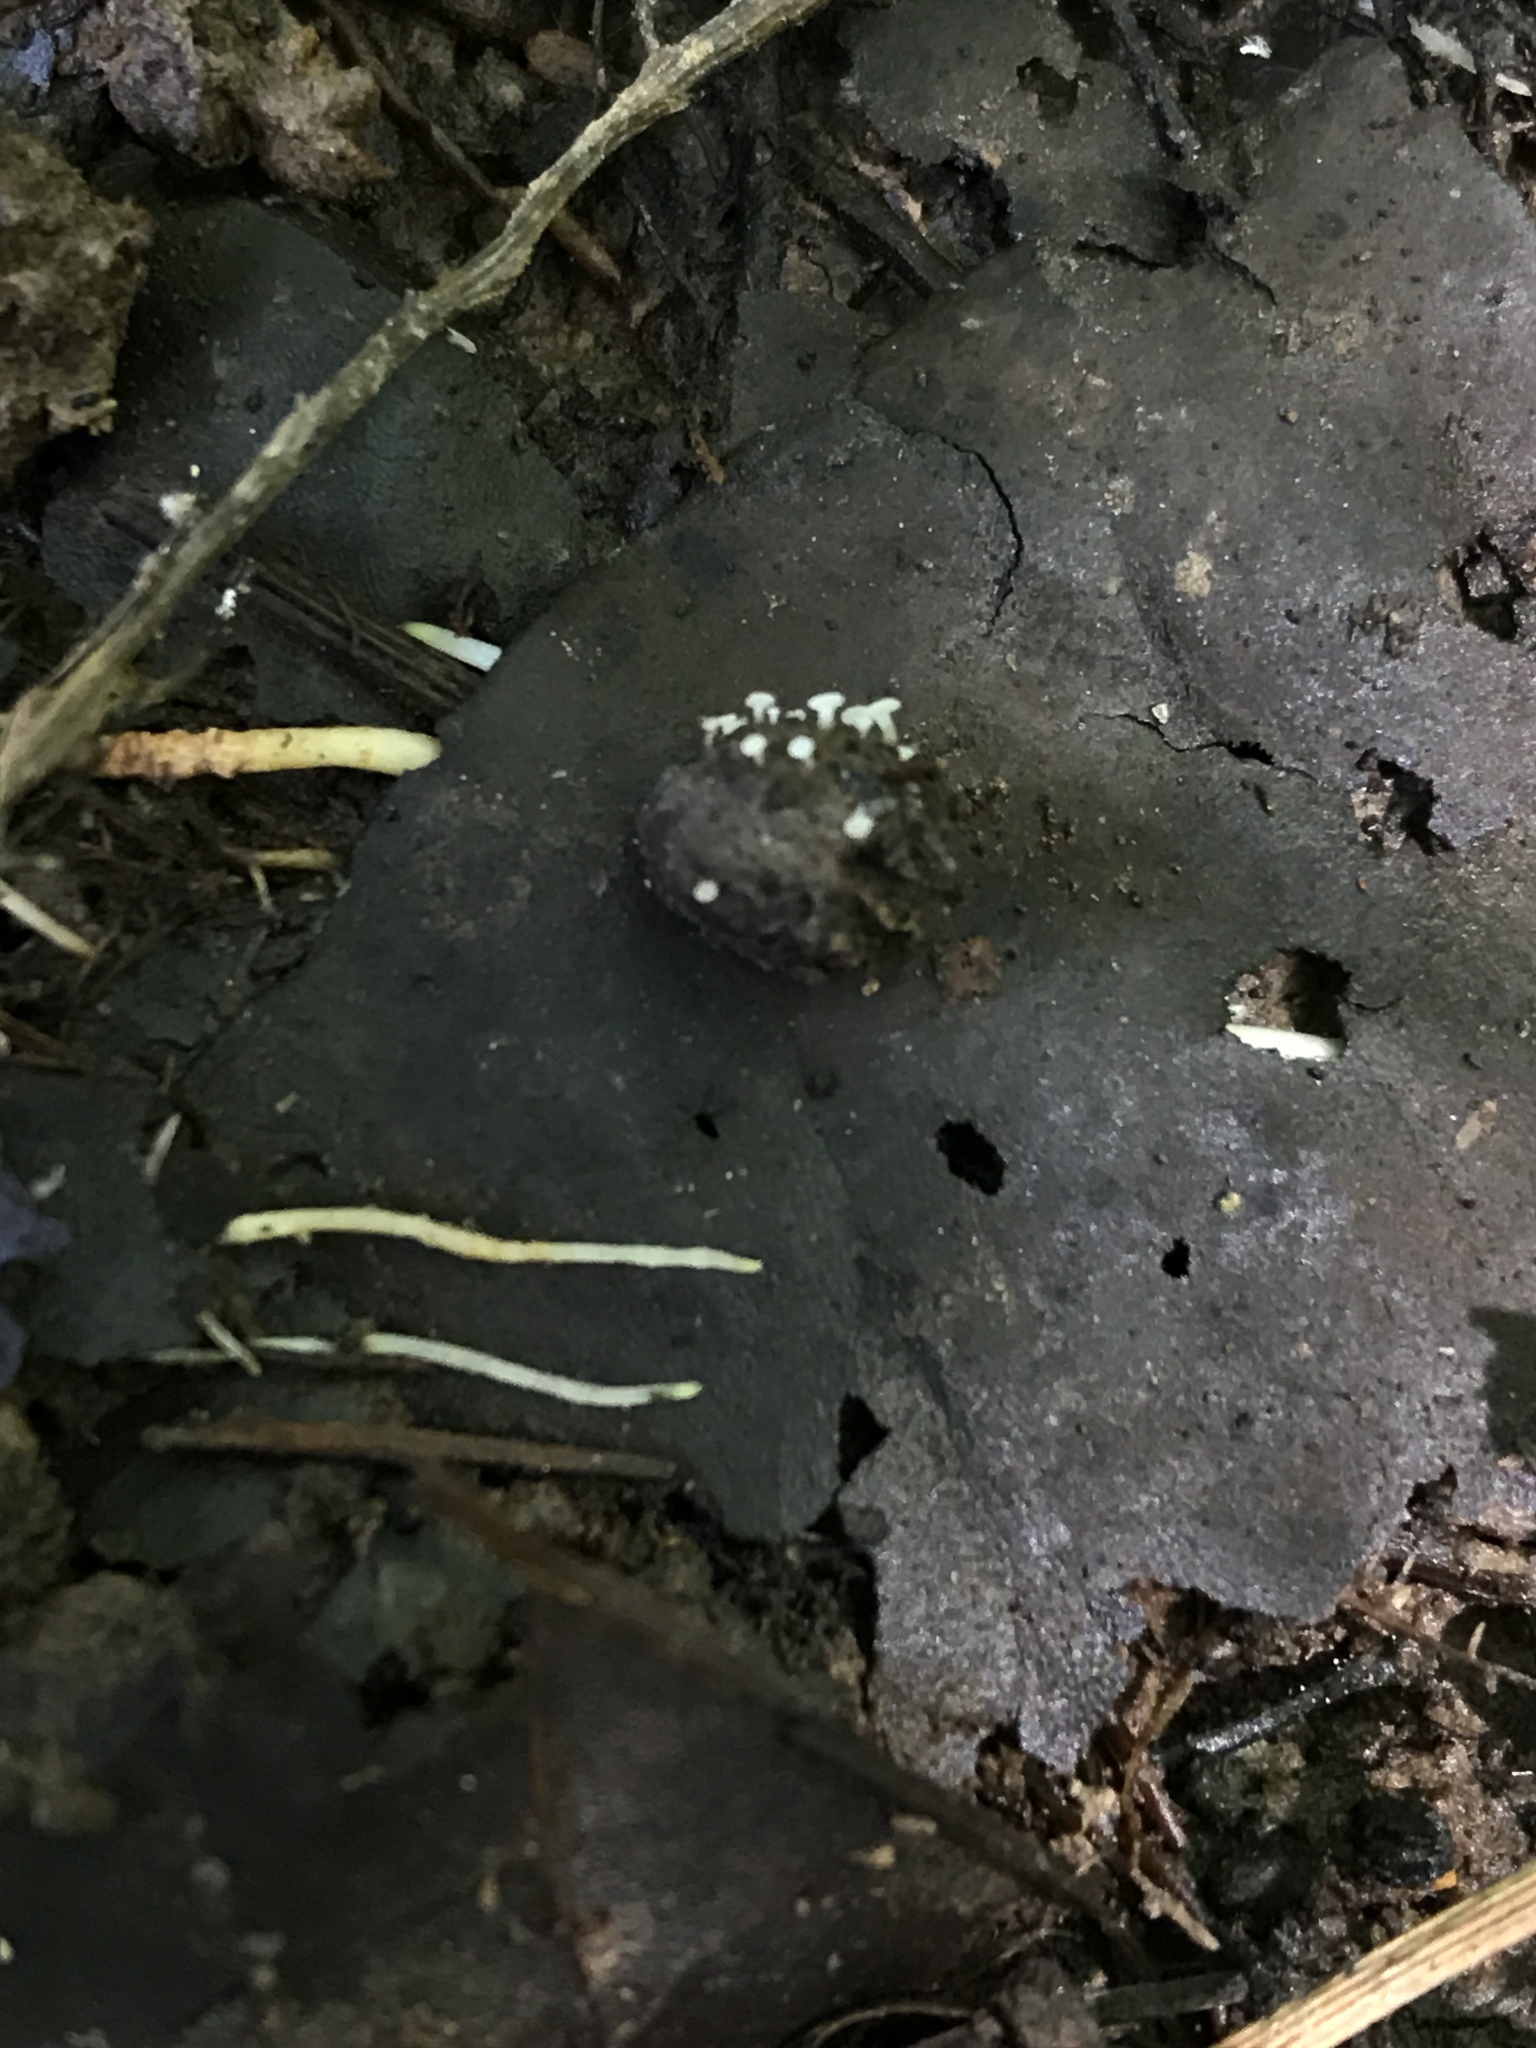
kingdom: Fungi
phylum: Ascomycota
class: Leotiomycetes
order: Helotiales
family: Tricladiaceae
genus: Tricladium
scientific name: Tricladium varicosporioides
